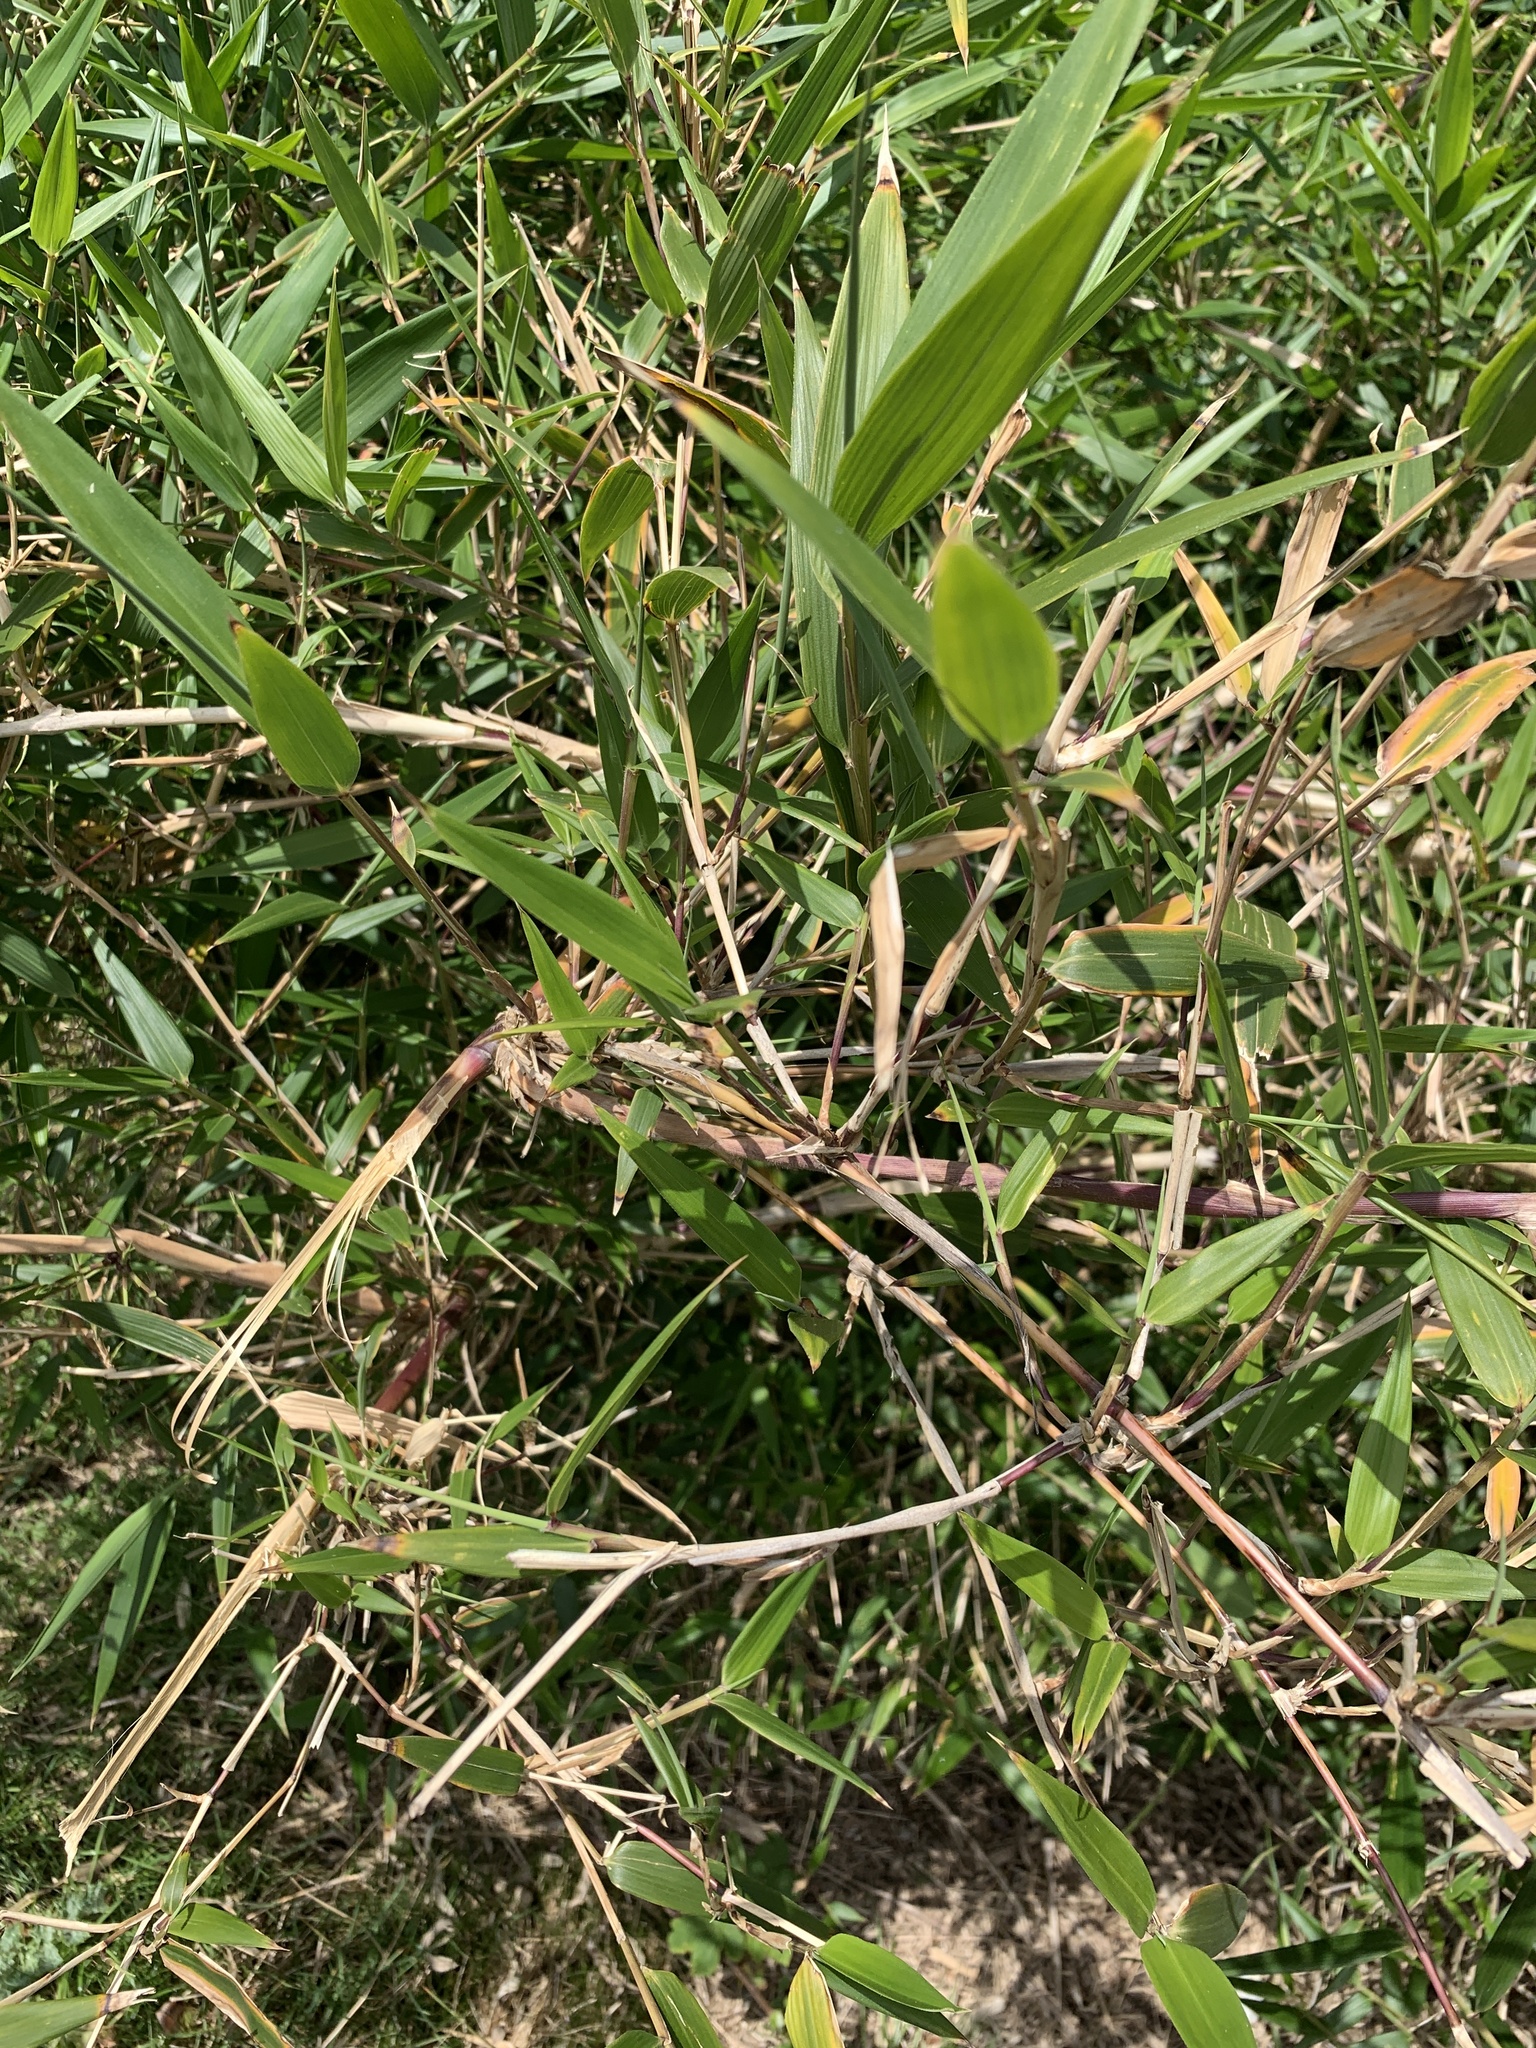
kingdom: Plantae
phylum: Tracheophyta
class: Liliopsida
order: Poales
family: Poaceae
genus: Chusquea
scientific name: Chusquea quila
